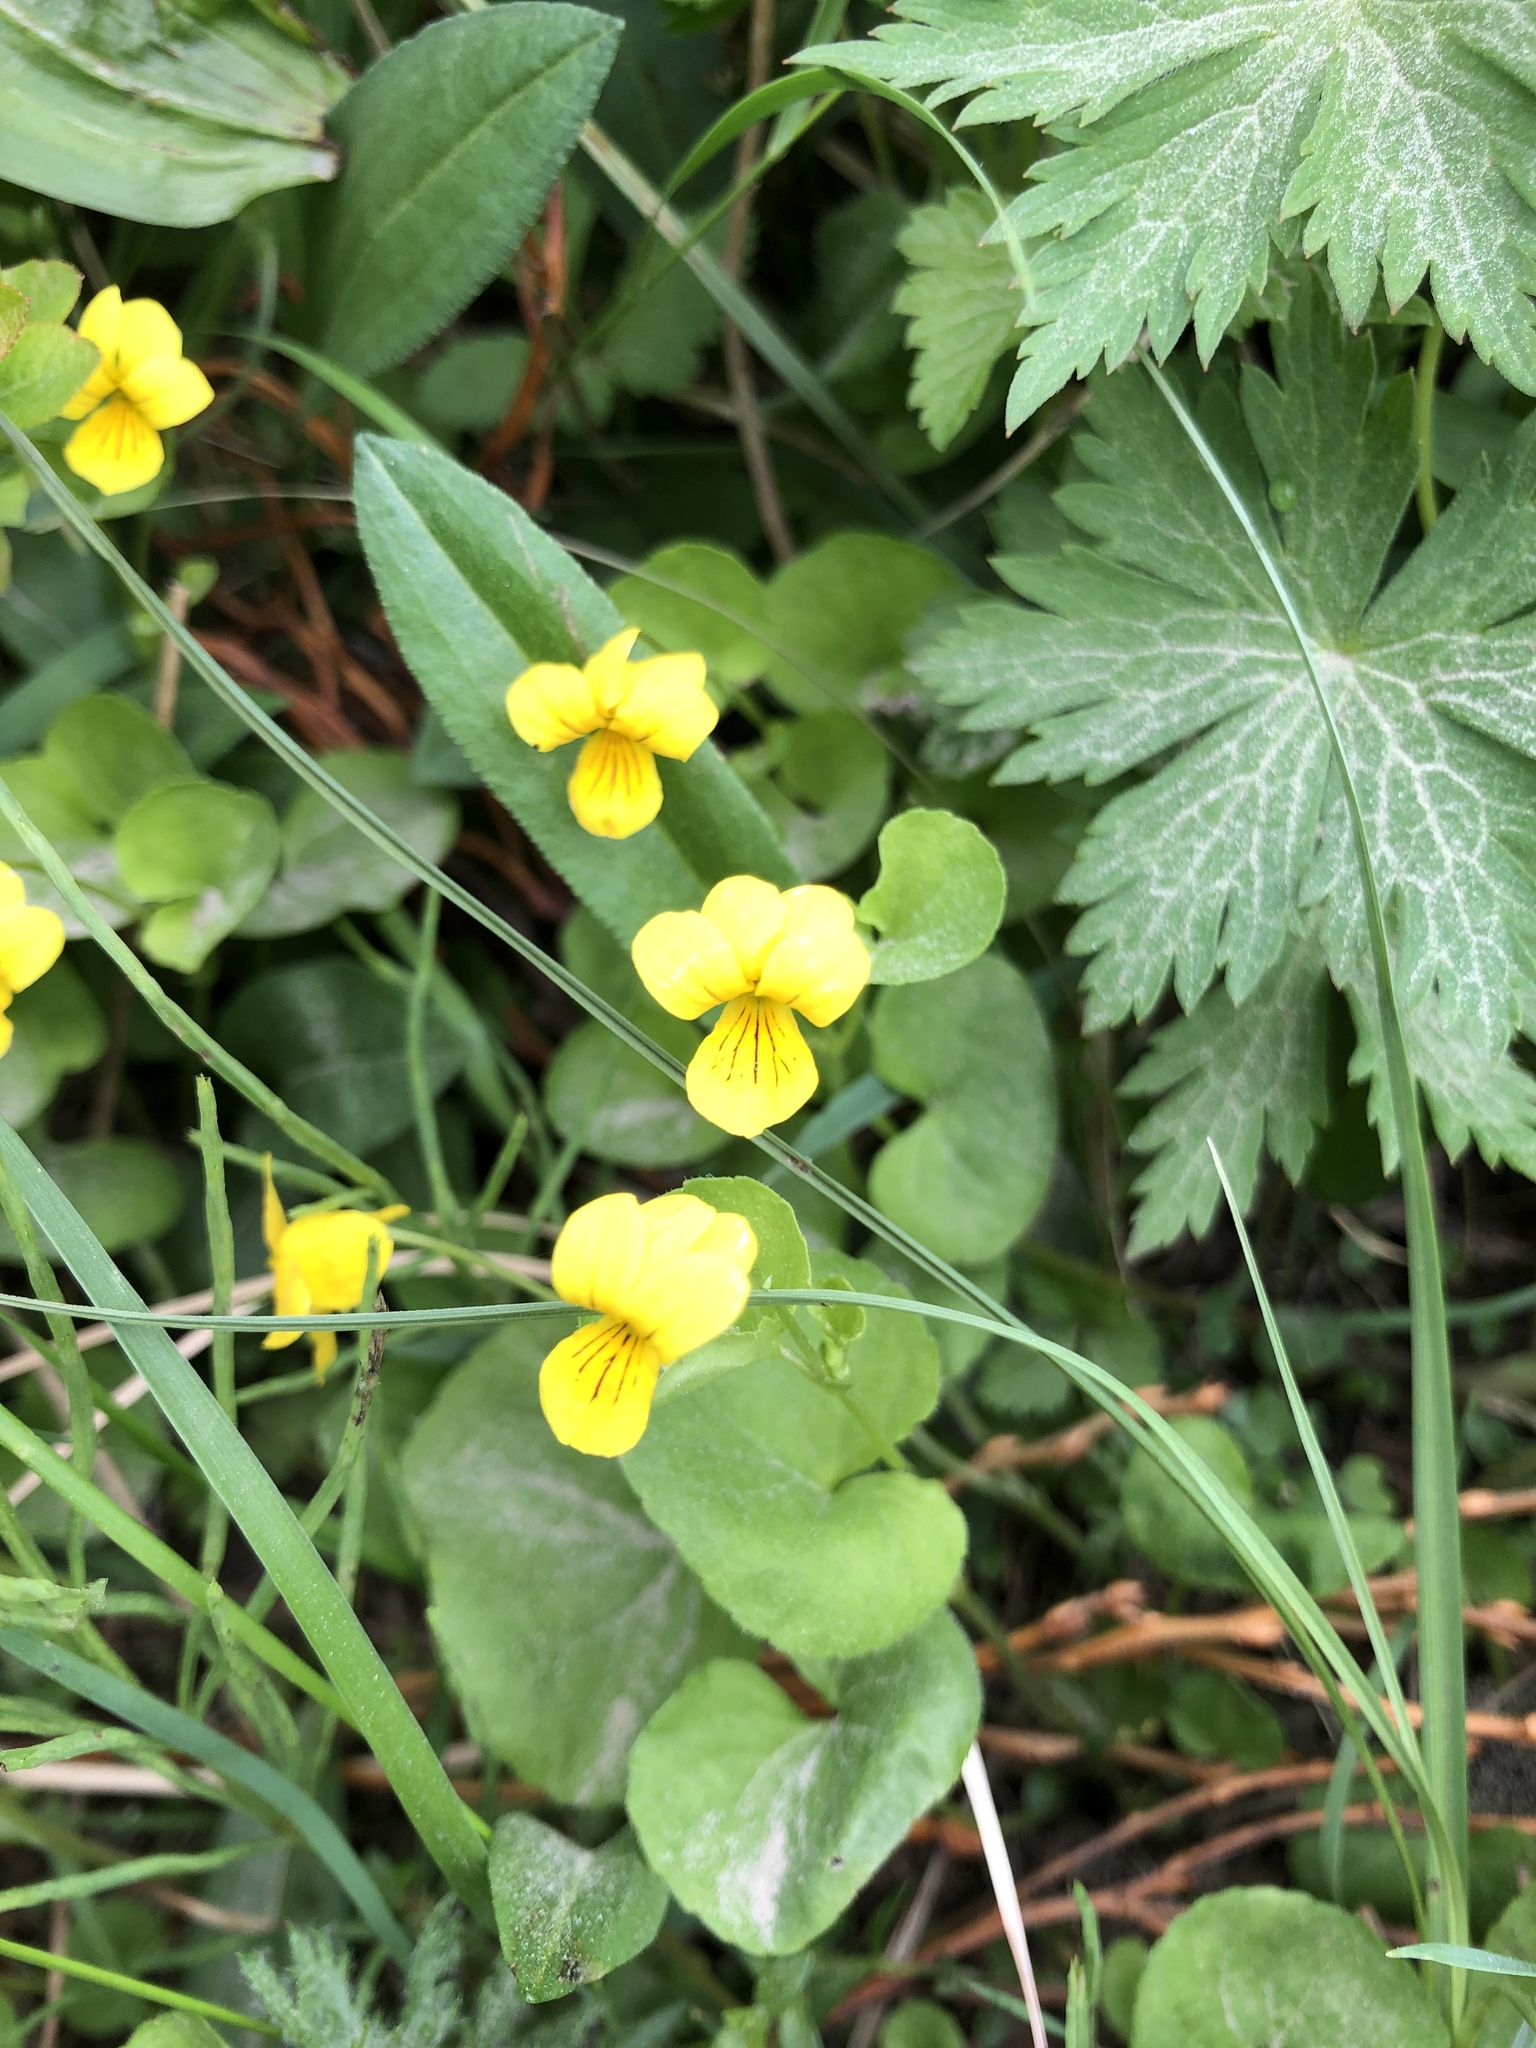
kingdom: Plantae
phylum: Tracheophyta
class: Magnoliopsida
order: Malpighiales
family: Violaceae
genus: Viola
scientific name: Viola biflora
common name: Alpine yellow violet
